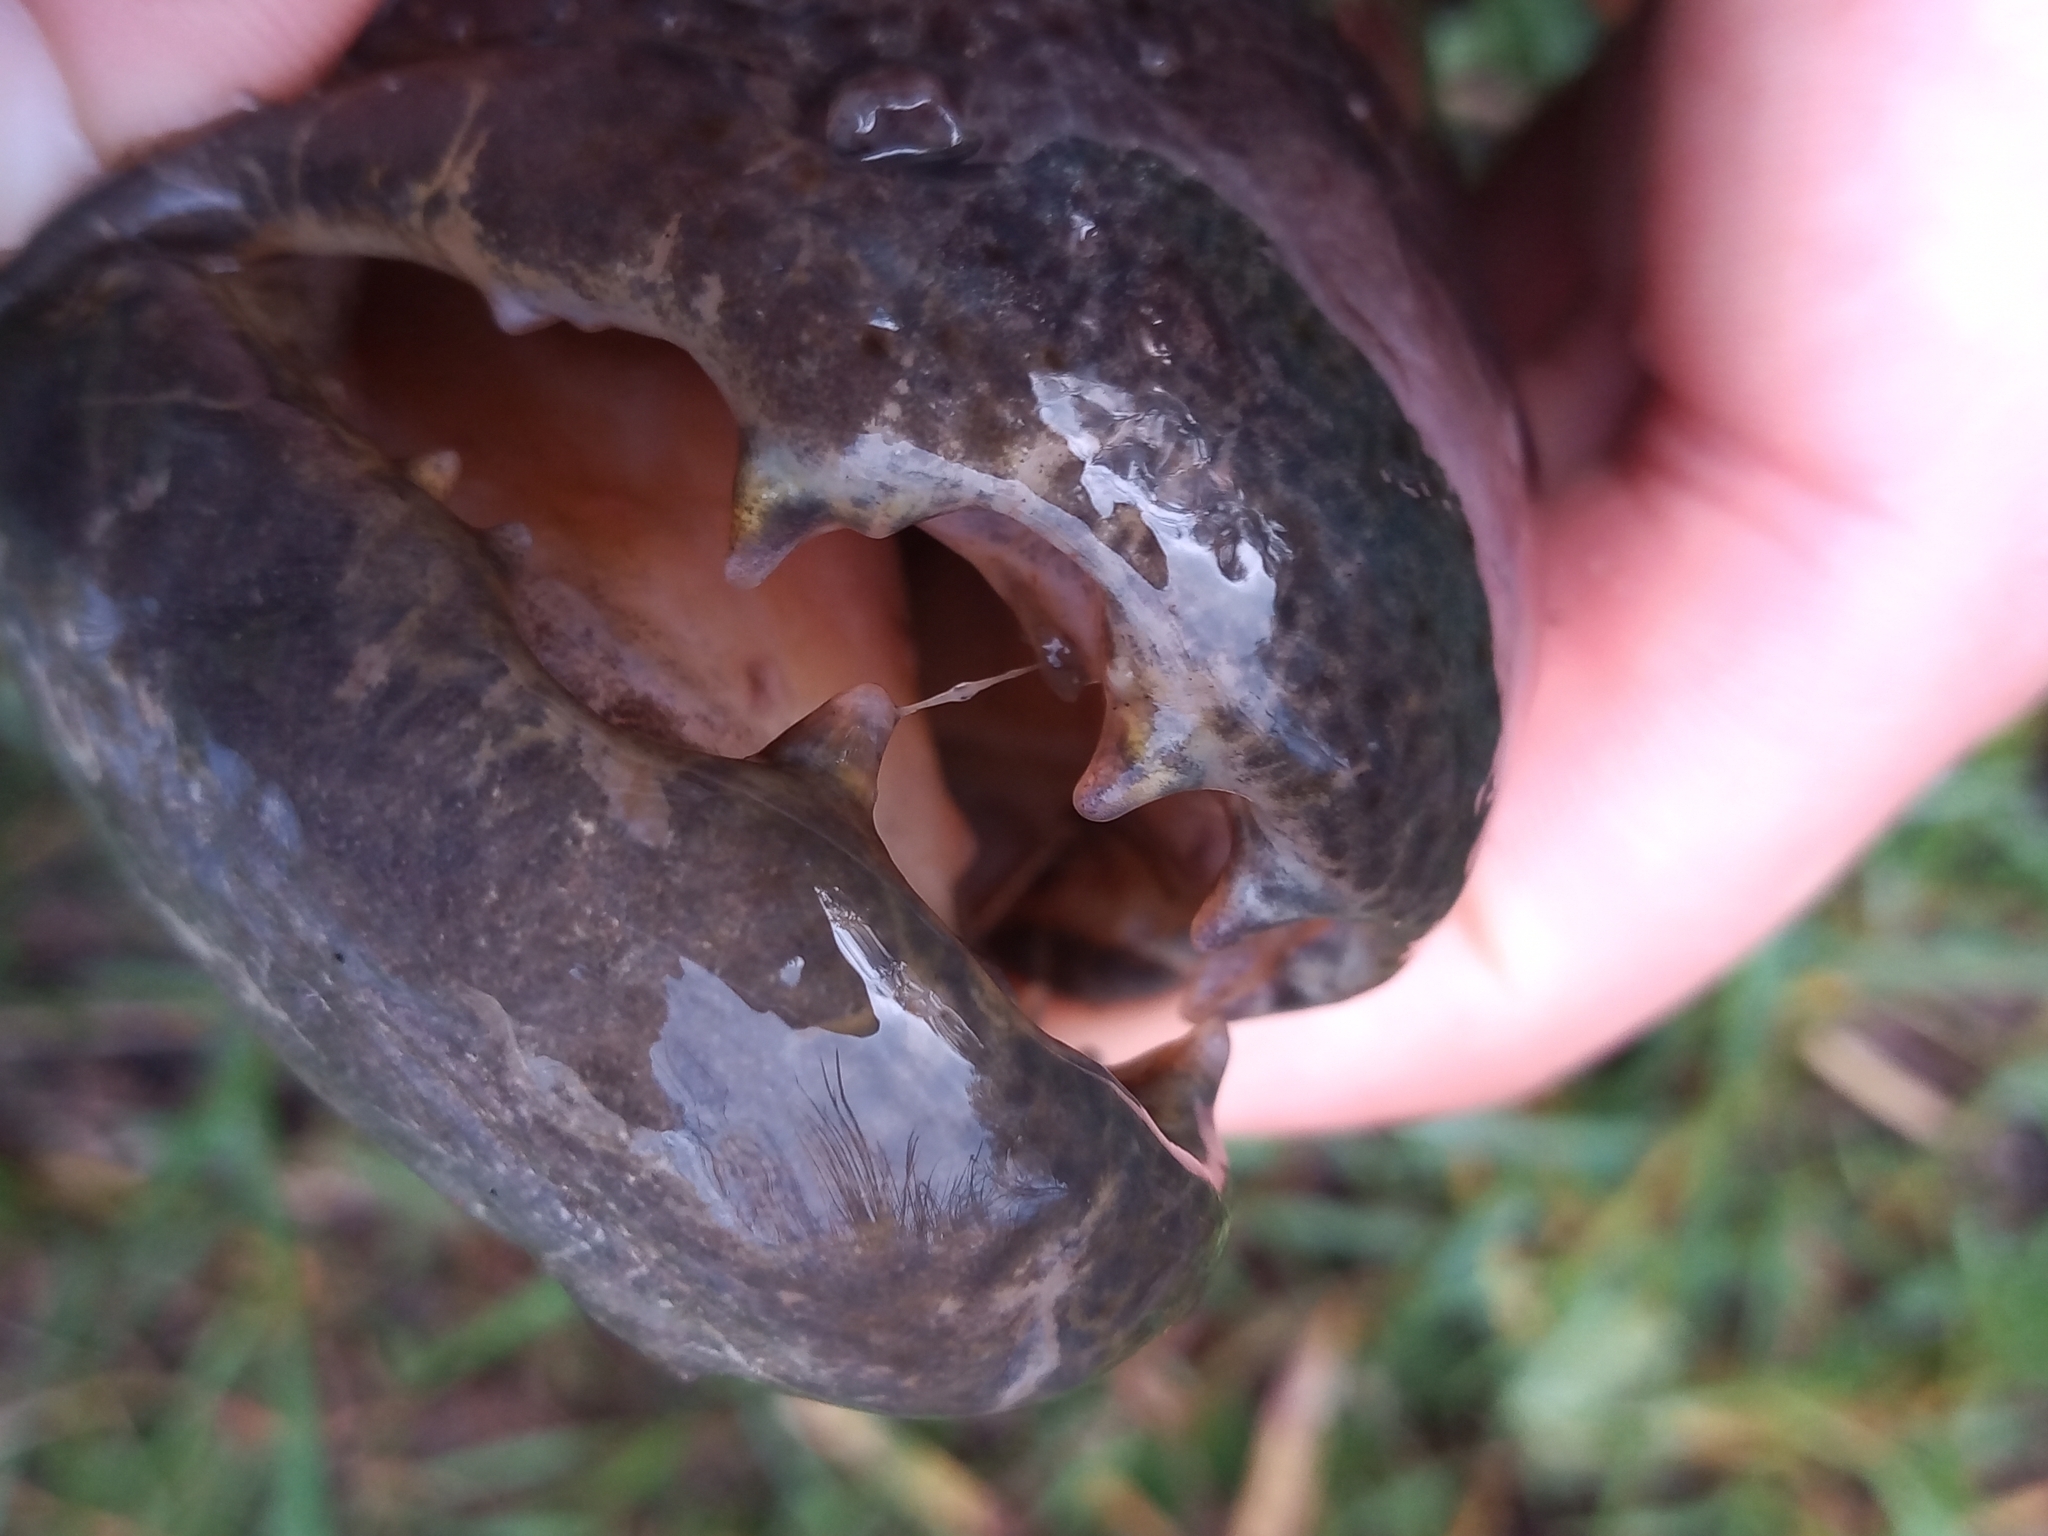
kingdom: Animalia
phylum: Chordata
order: Characiformes
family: Erythrinidae
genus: Hoplias
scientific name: Hoplias argentinensis
